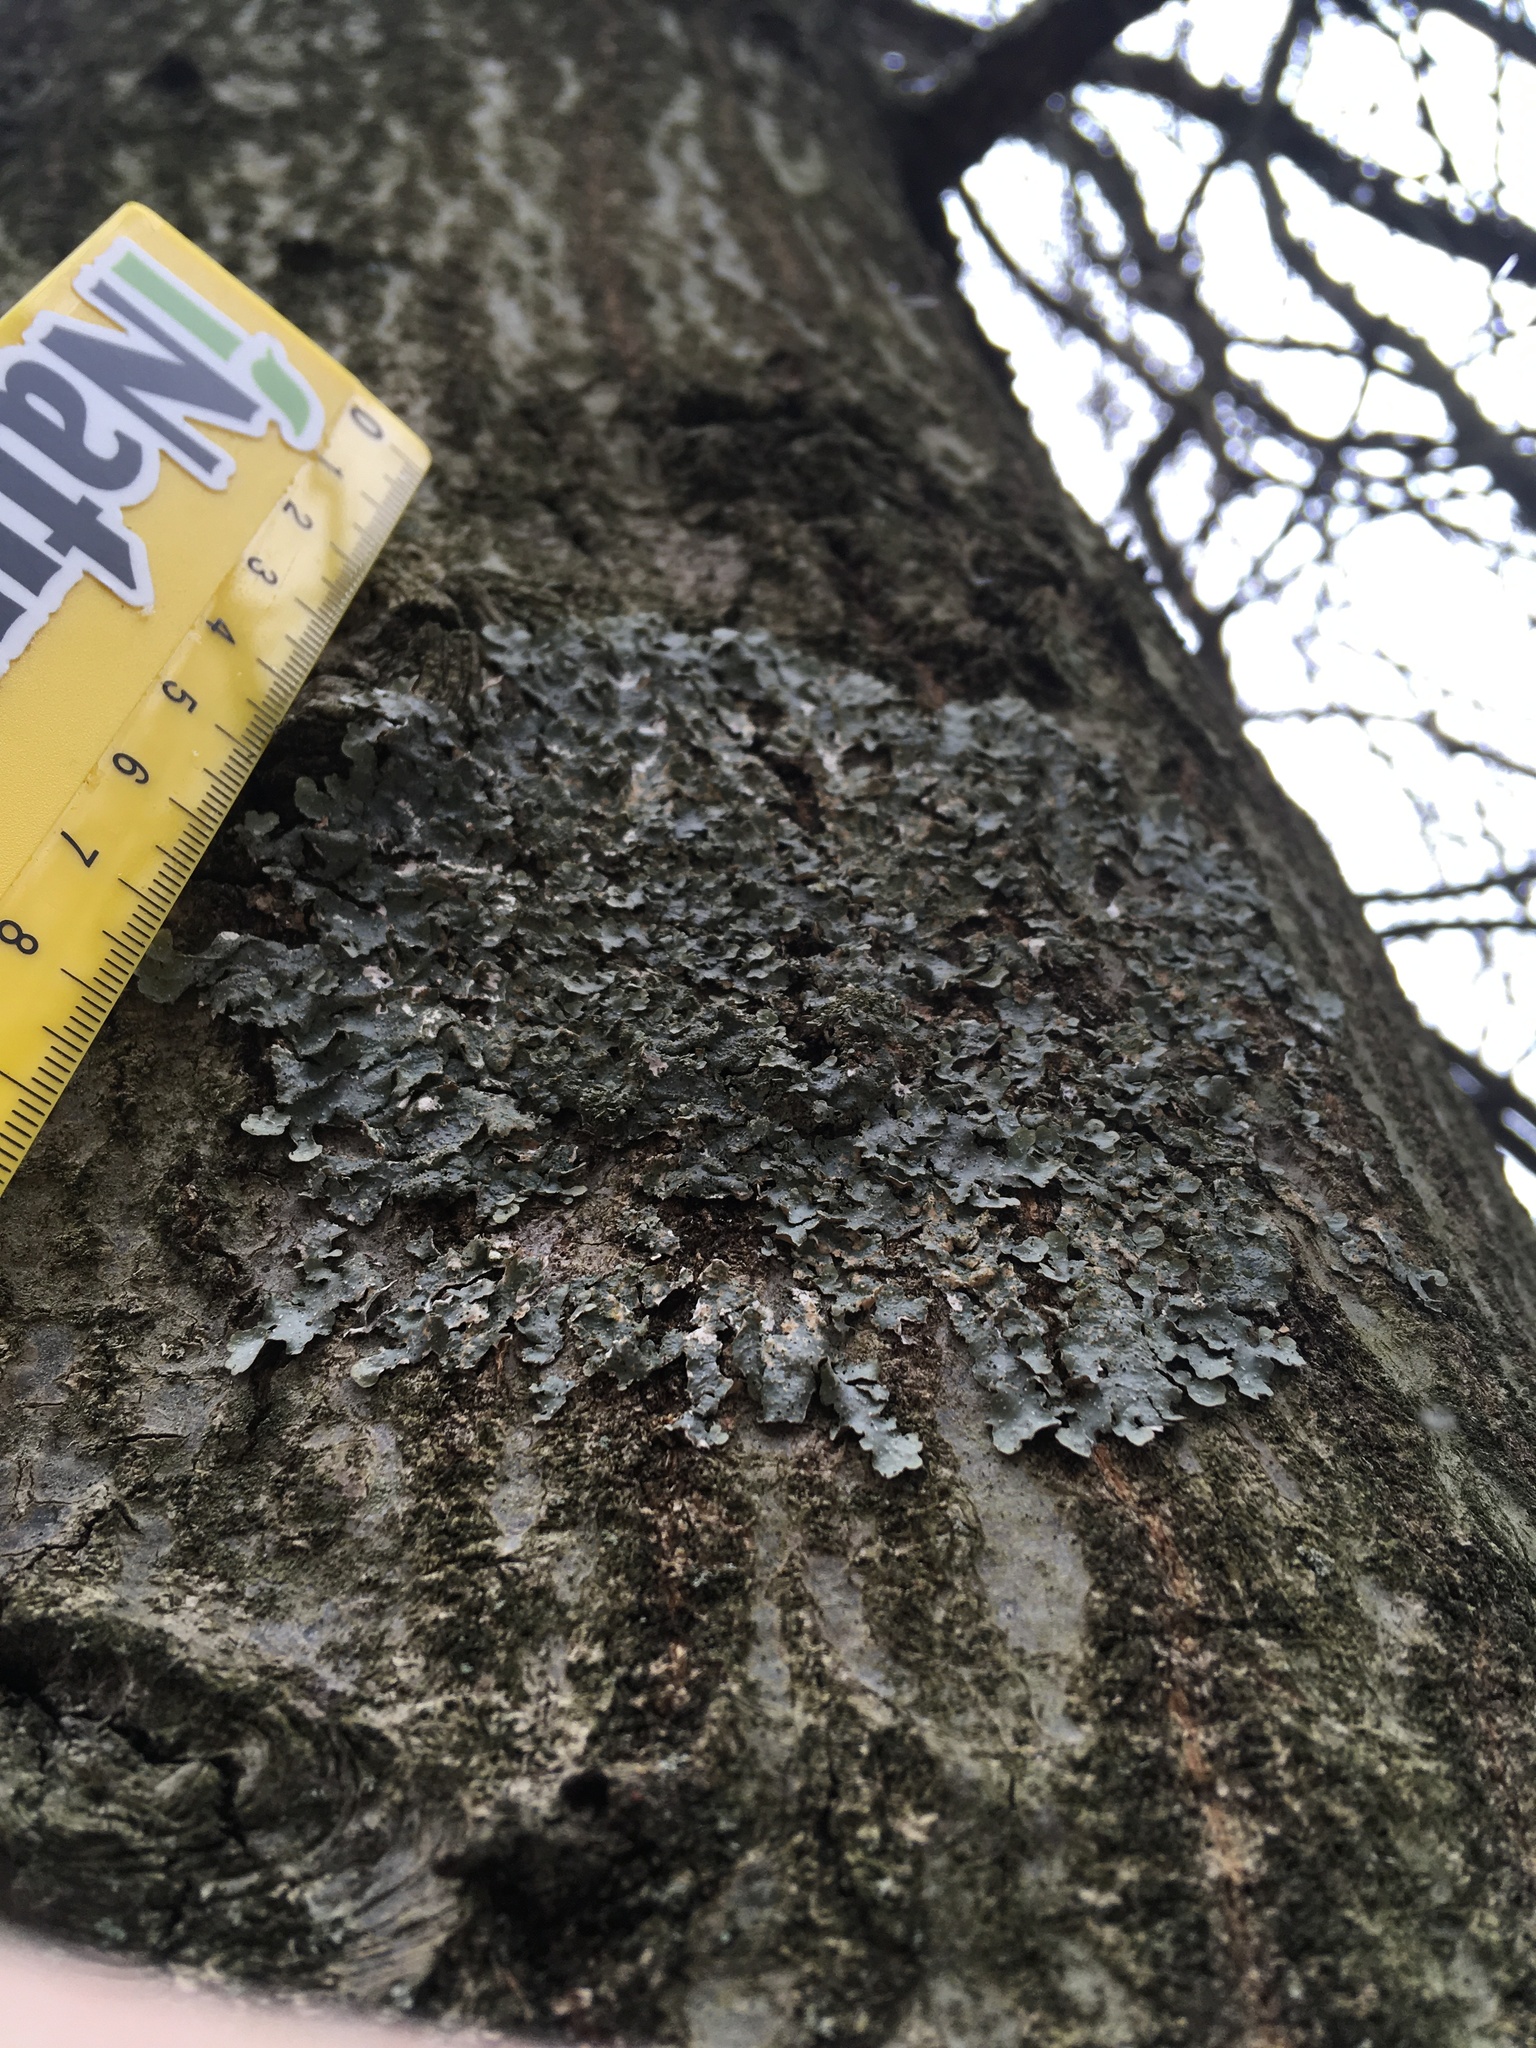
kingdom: Fungi
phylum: Ascomycota
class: Lecanoromycetes
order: Lecanorales
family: Parmeliaceae
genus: Punctelia
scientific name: Punctelia rudecta
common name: Rough speckled shield lichen
